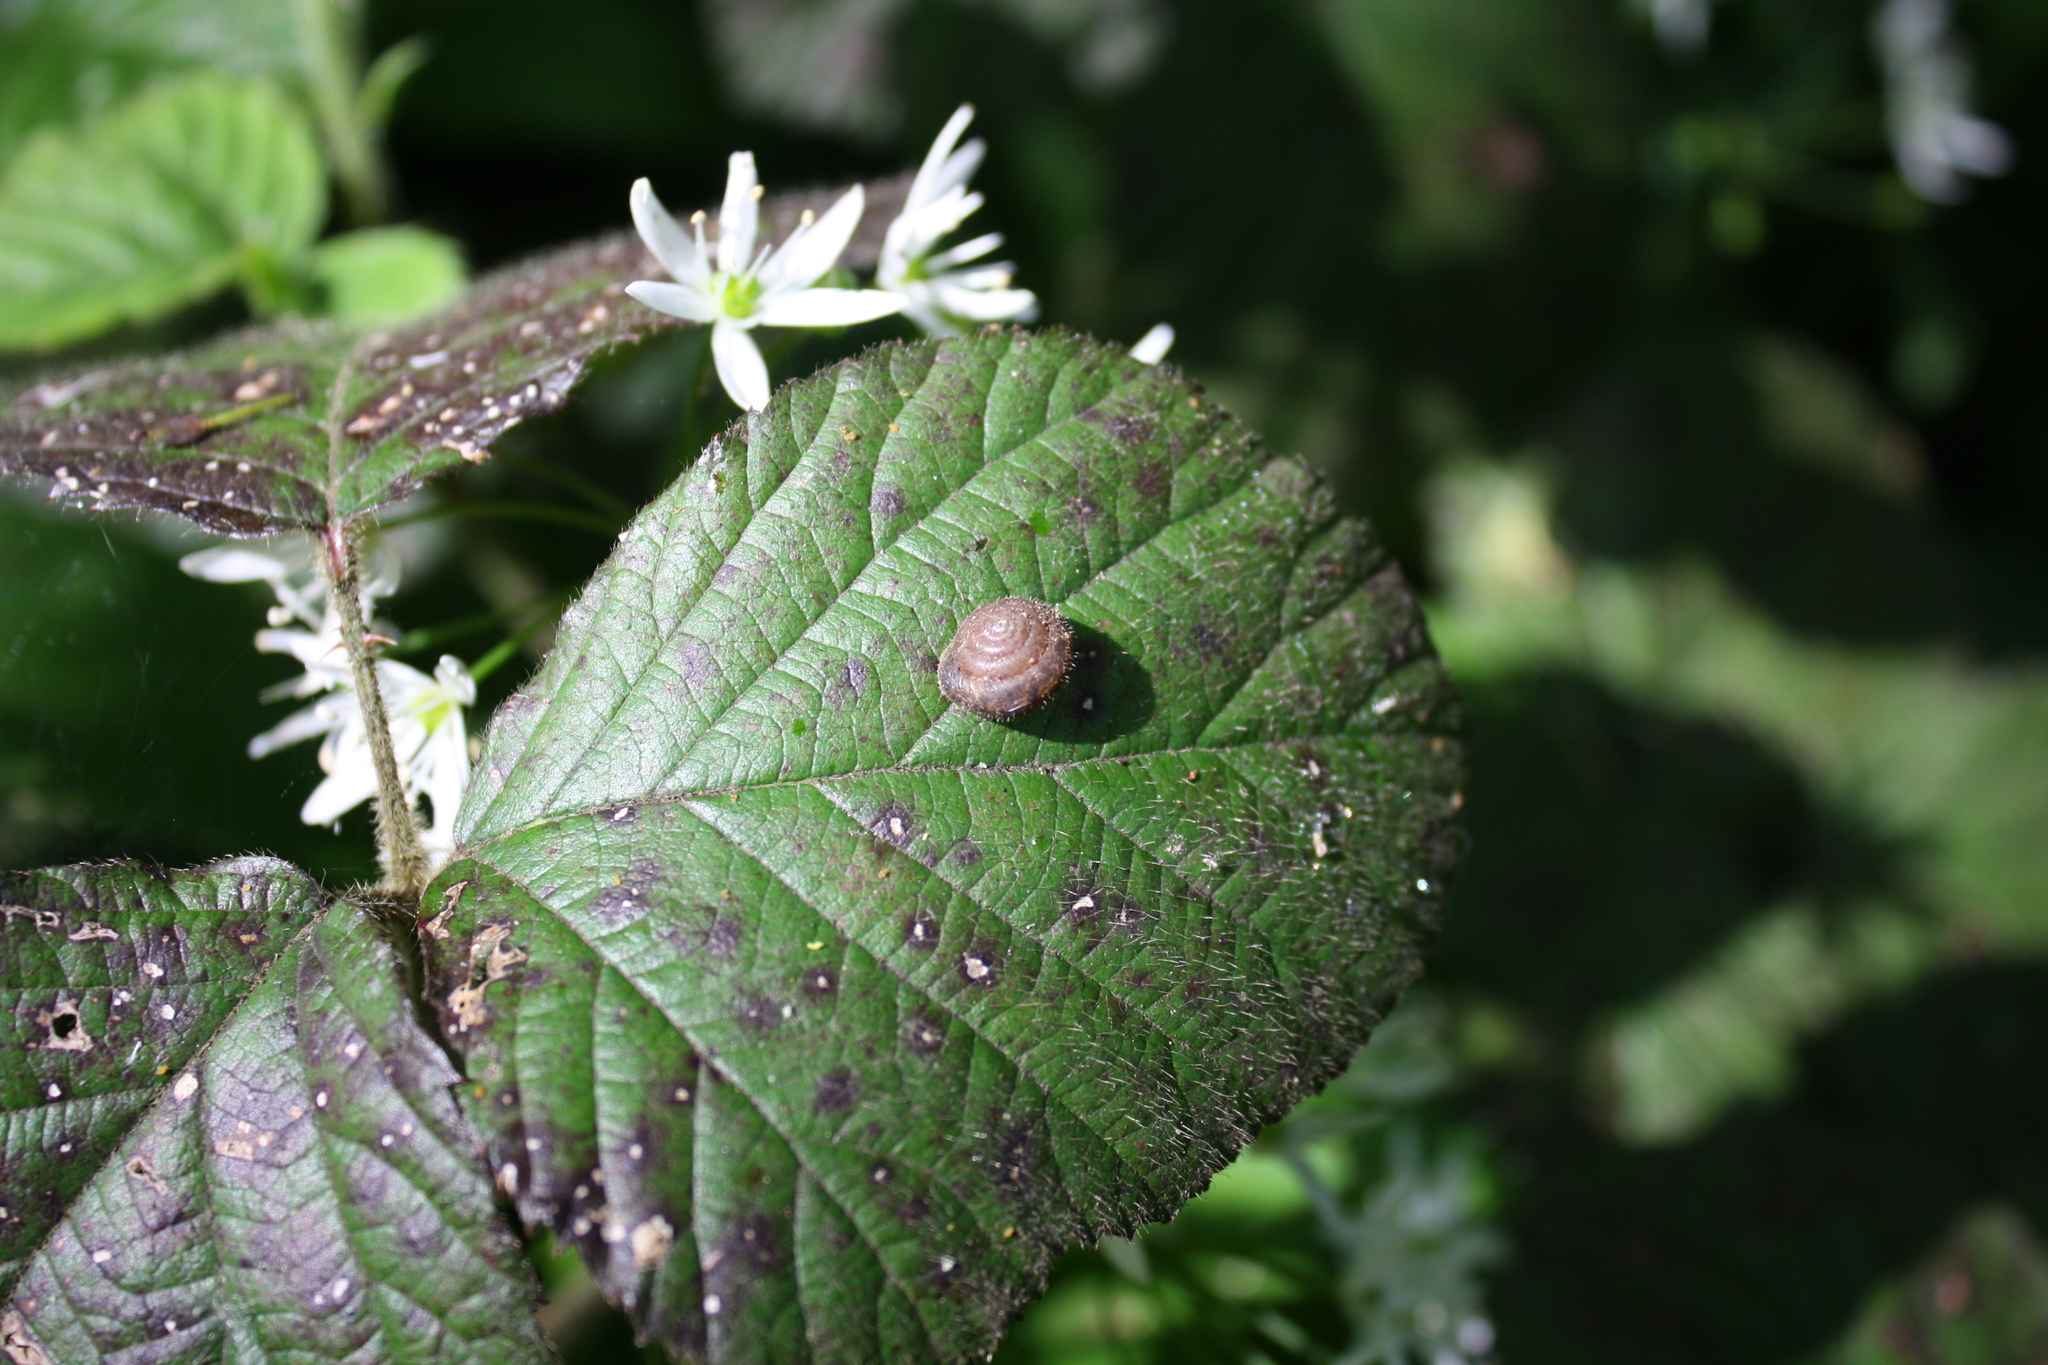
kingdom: Animalia
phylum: Mollusca
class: Gastropoda
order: Stylommatophora
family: Hygromiidae
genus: Trochulus
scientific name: Trochulus hispidus
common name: Hairy snail
